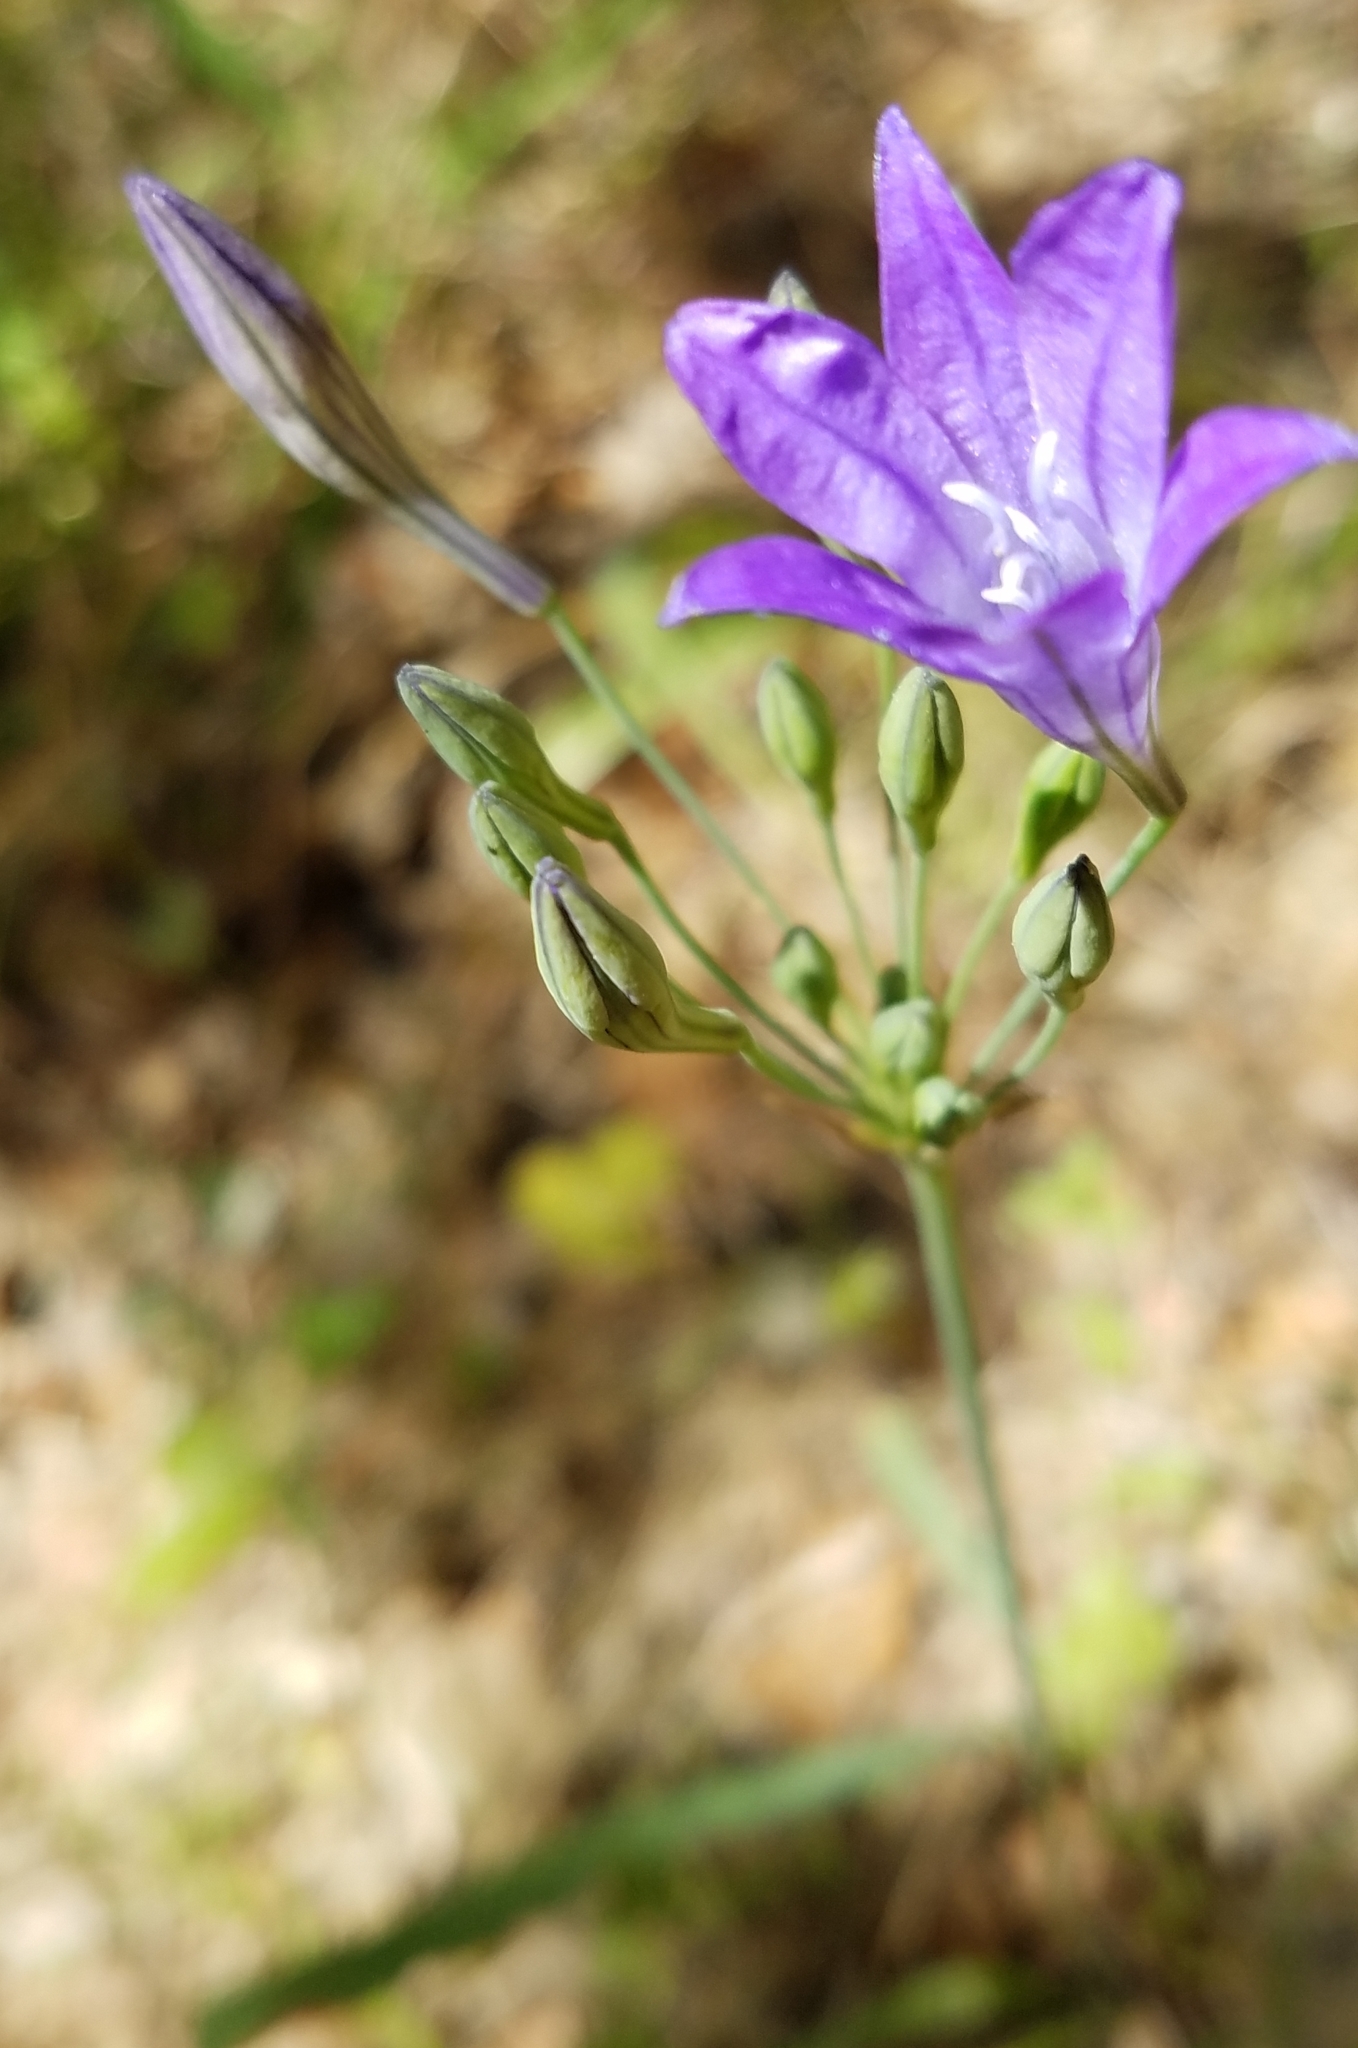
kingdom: Plantae
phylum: Tracheophyta
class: Liliopsida
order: Asparagales
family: Asparagaceae
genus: Triteleia
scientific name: Triteleia laxa
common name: Triplet-lily
